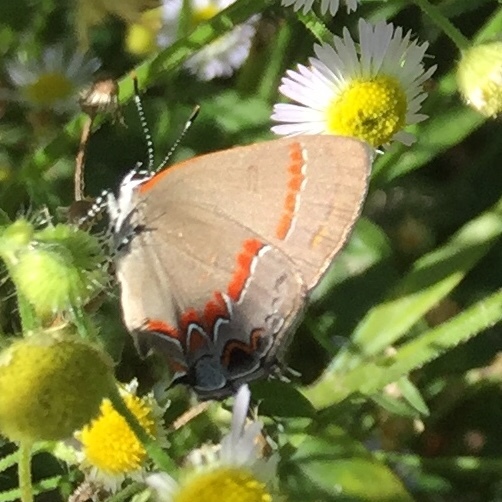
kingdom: Animalia
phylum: Arthropoda
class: Insecta
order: Lepidoptera
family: Lycaenidae
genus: Calycopis
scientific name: Calycopis cecrops
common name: Red-banded hairstreak
